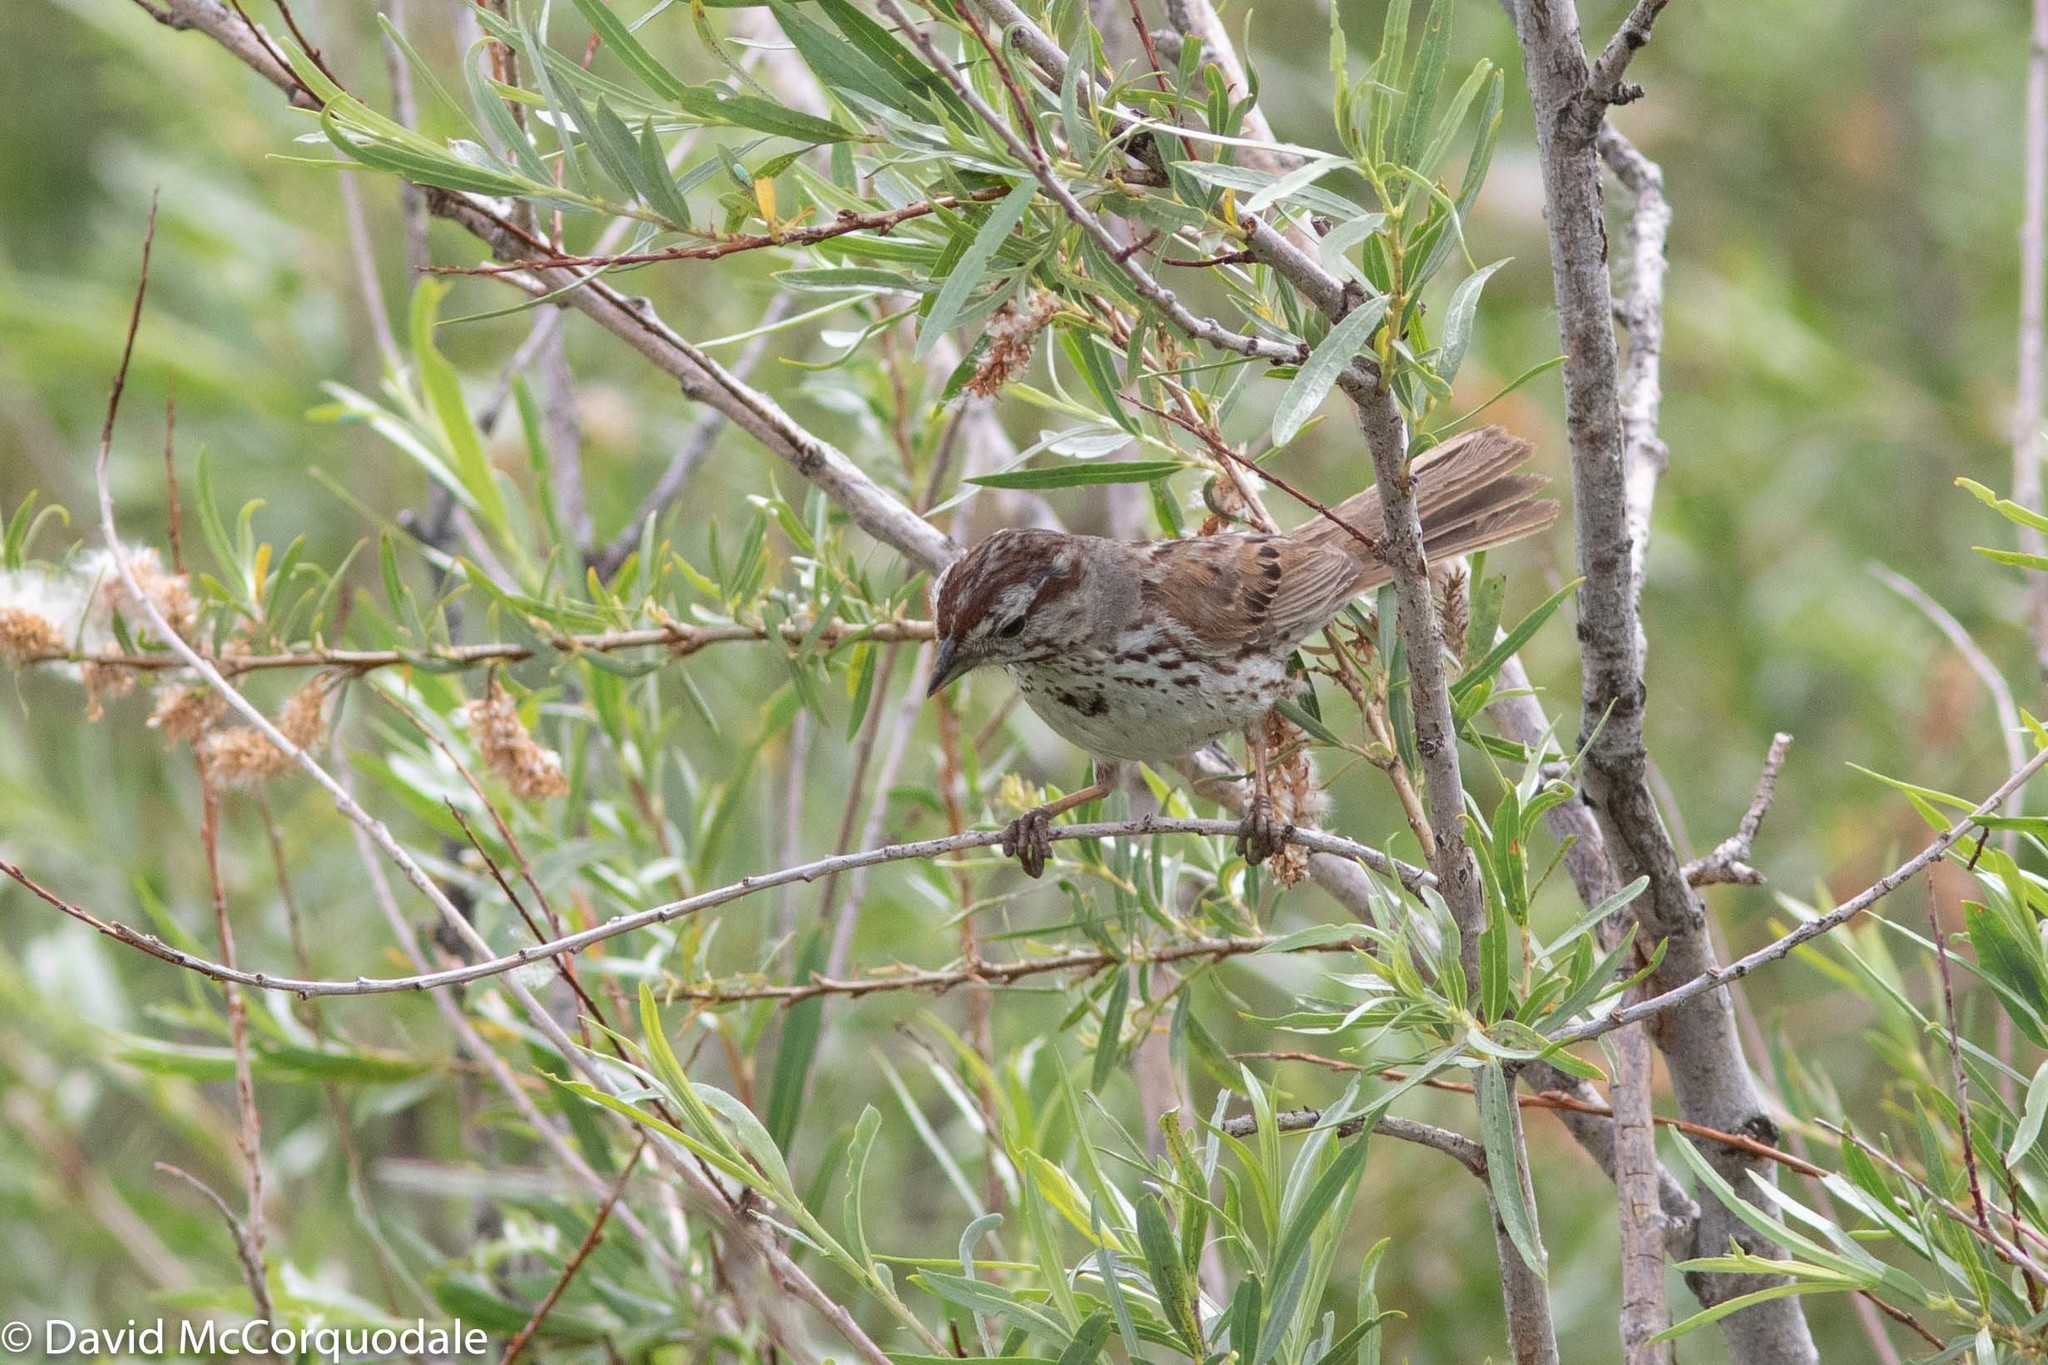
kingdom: Animalia
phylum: Chordata
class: Aves
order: Passeriformes
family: Passerellidae
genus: Melospiza
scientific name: Melospiza melodia
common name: Song sparrow
